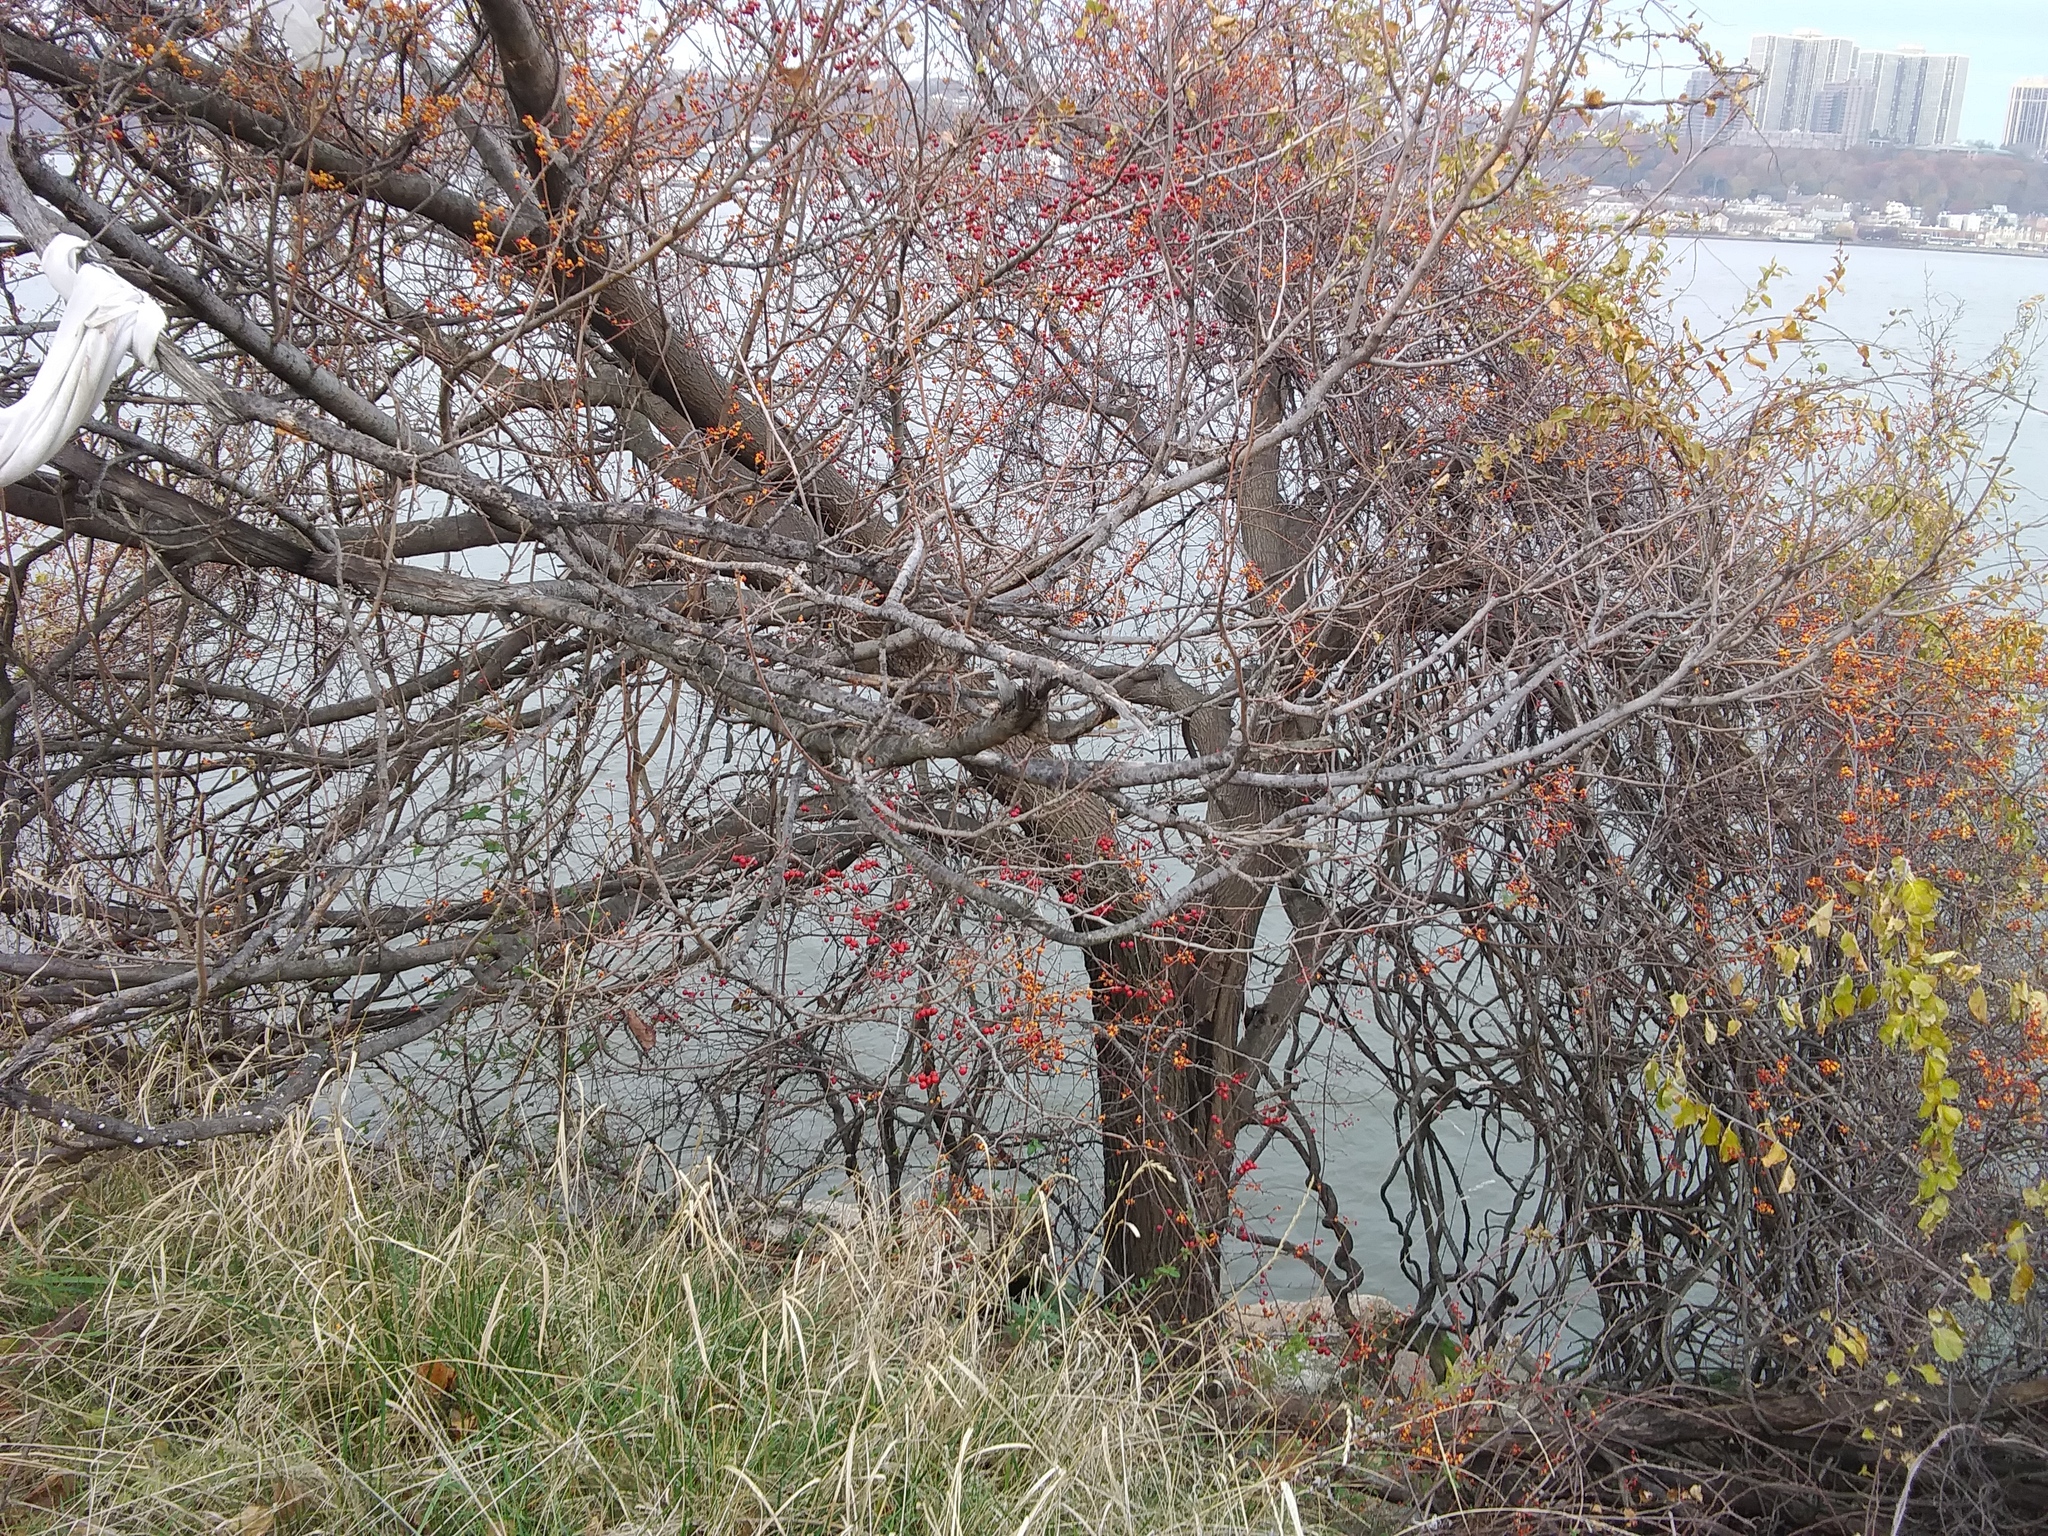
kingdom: Plantae
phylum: Tracheophyta
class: Magnoliopsida
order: Celastrales
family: Celastraceae
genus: Celastrus
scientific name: Celastrus orbiculatus
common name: Oriental bittersweet
